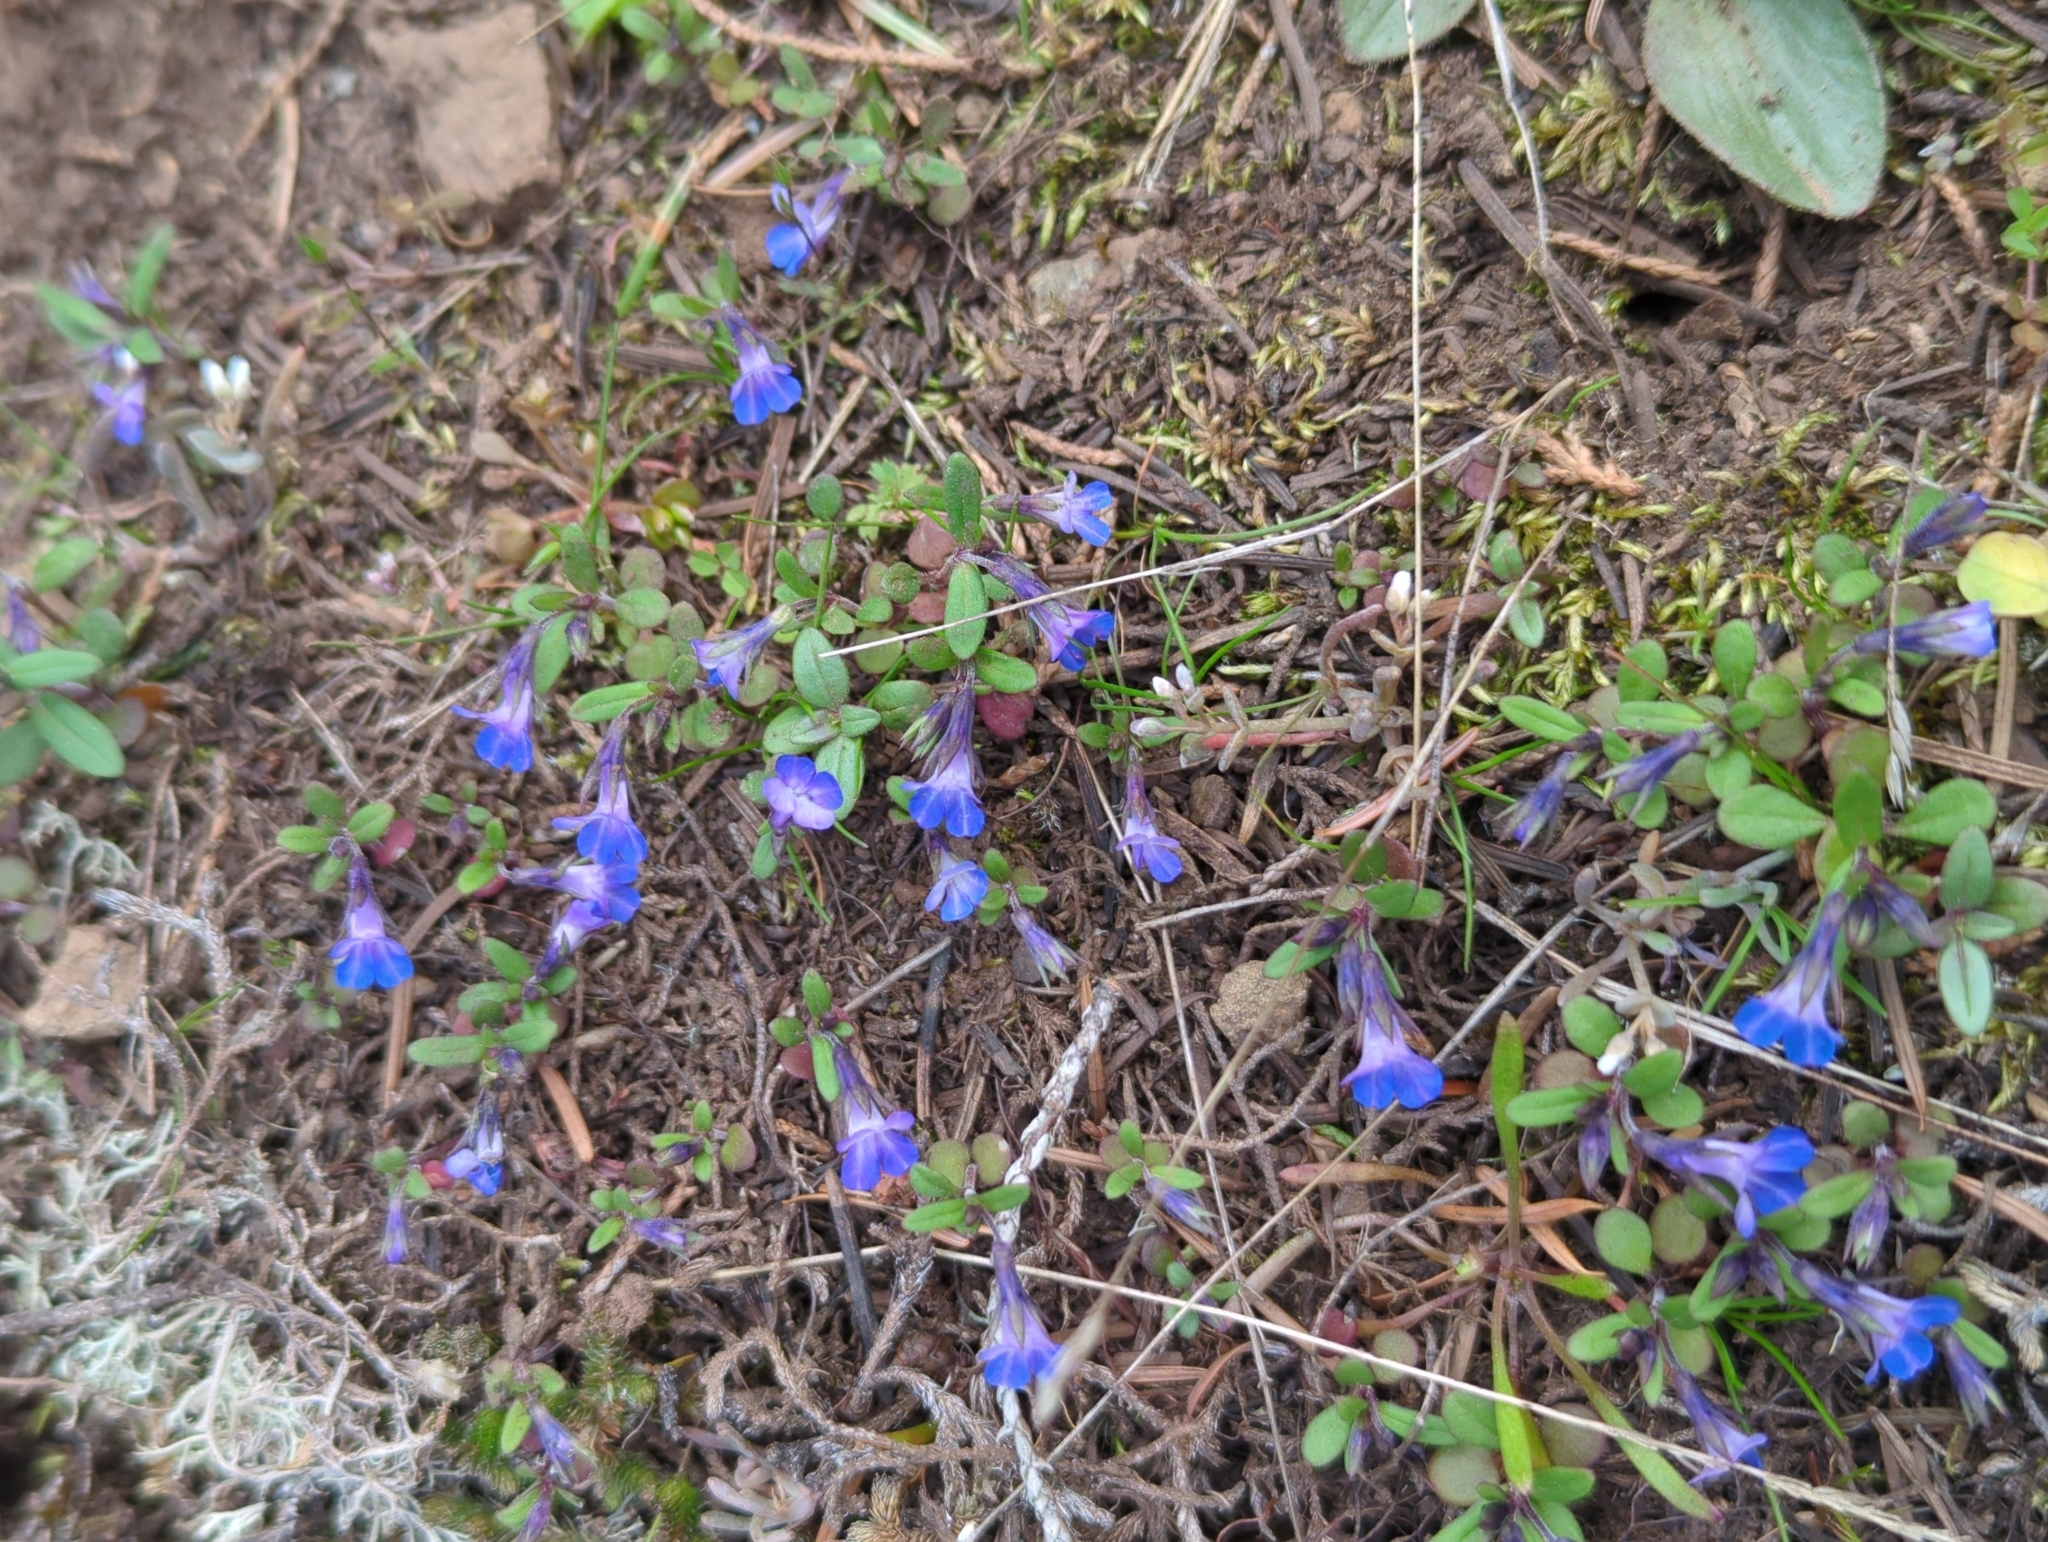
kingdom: Plantae
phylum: Tracheophyta
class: Magnoliopsida
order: Lamiales
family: Plantaginaceae
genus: Collinsia
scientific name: Collinsia parviflora
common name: Blue-lips
